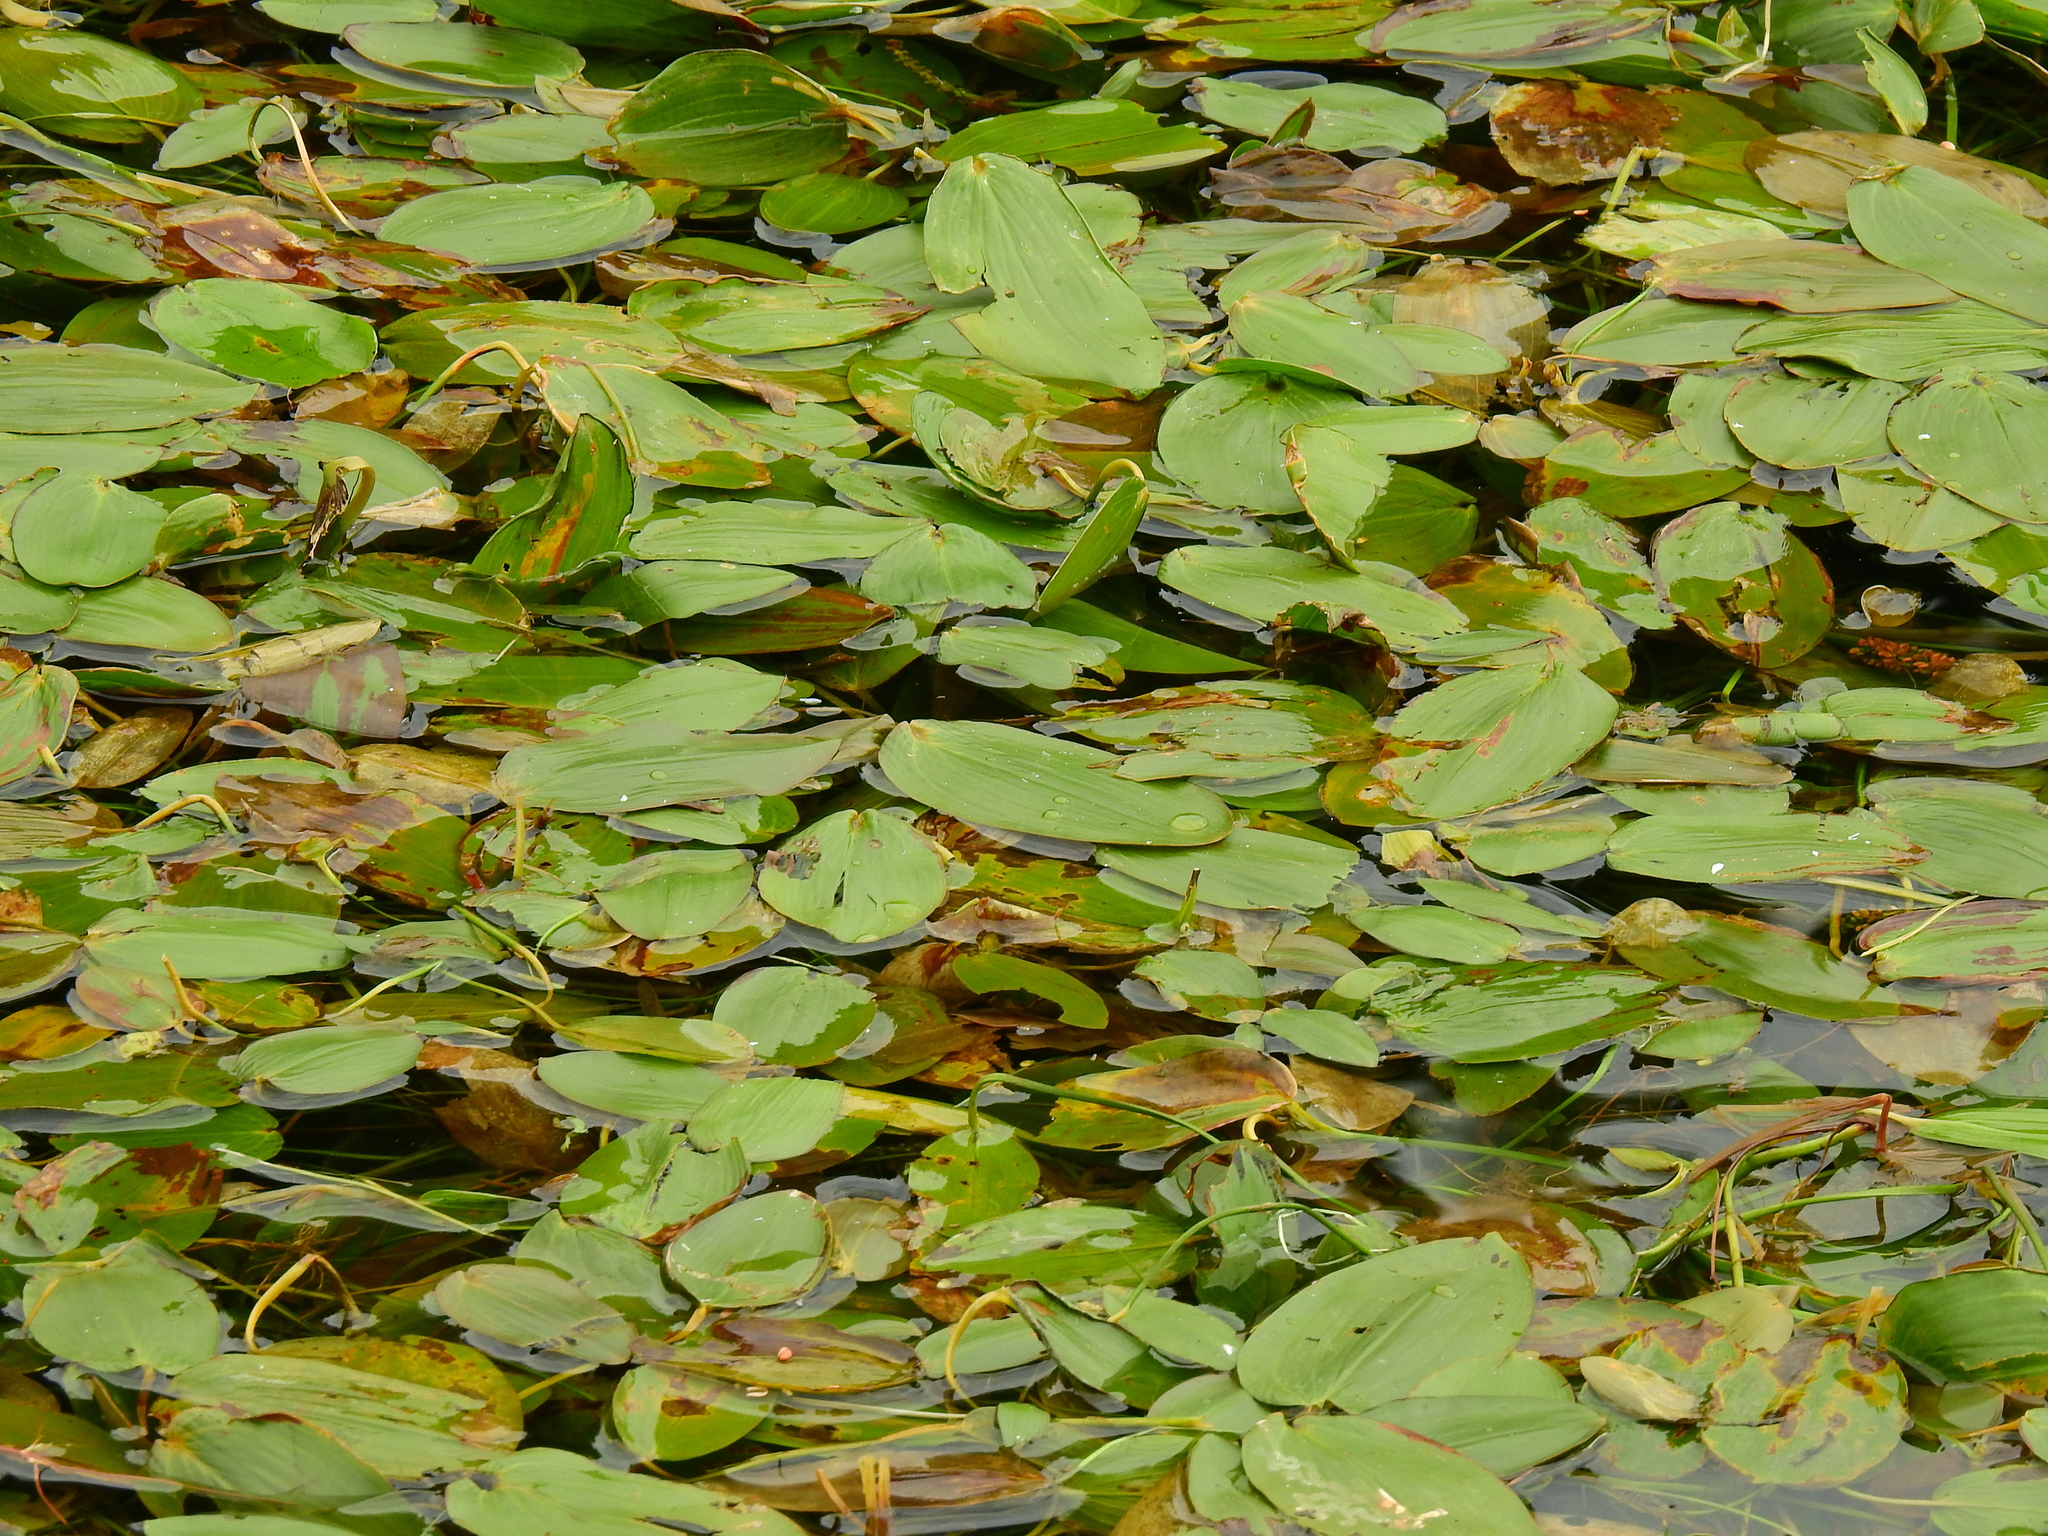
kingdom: Plantae
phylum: Tracheophyta
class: Liliopsida
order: Alismatales
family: Potamogetonaceae
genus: Potamogeton
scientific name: Potamogeton natans
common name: Broad-leaved pondweed
